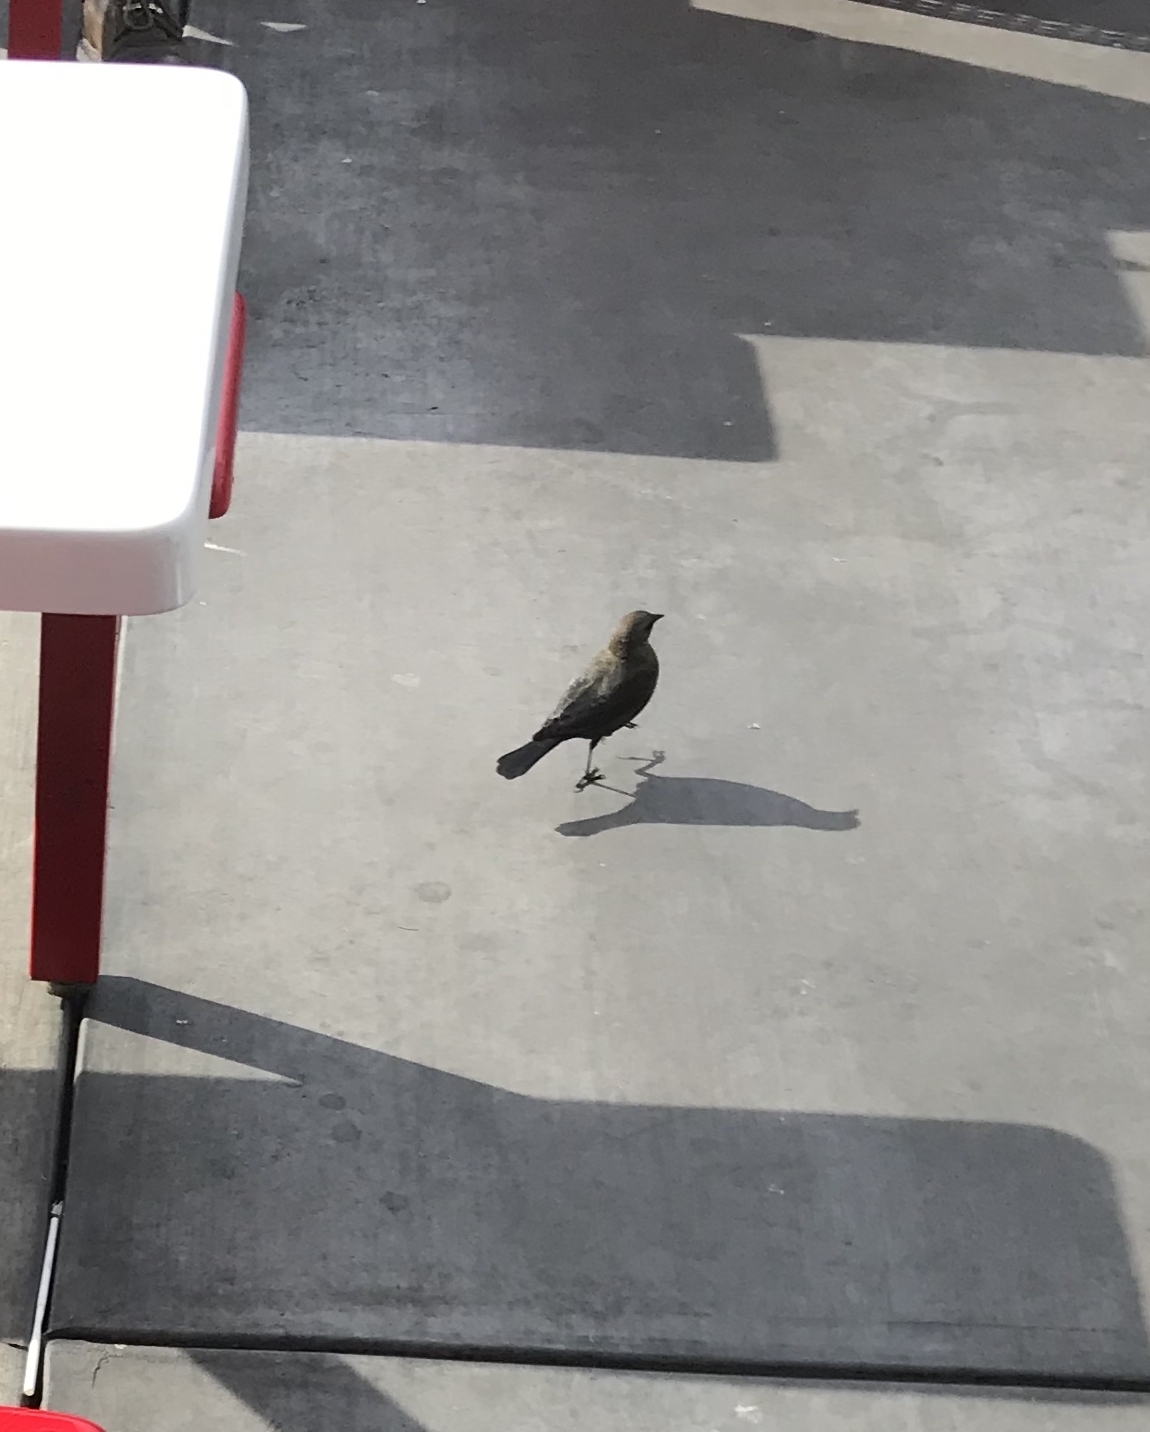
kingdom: Animalia
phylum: Chordata
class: Aves
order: Passeriformes
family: Icteridae
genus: Euphagus
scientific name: Euphagus cyanocephalus
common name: Brewer's blackbird
